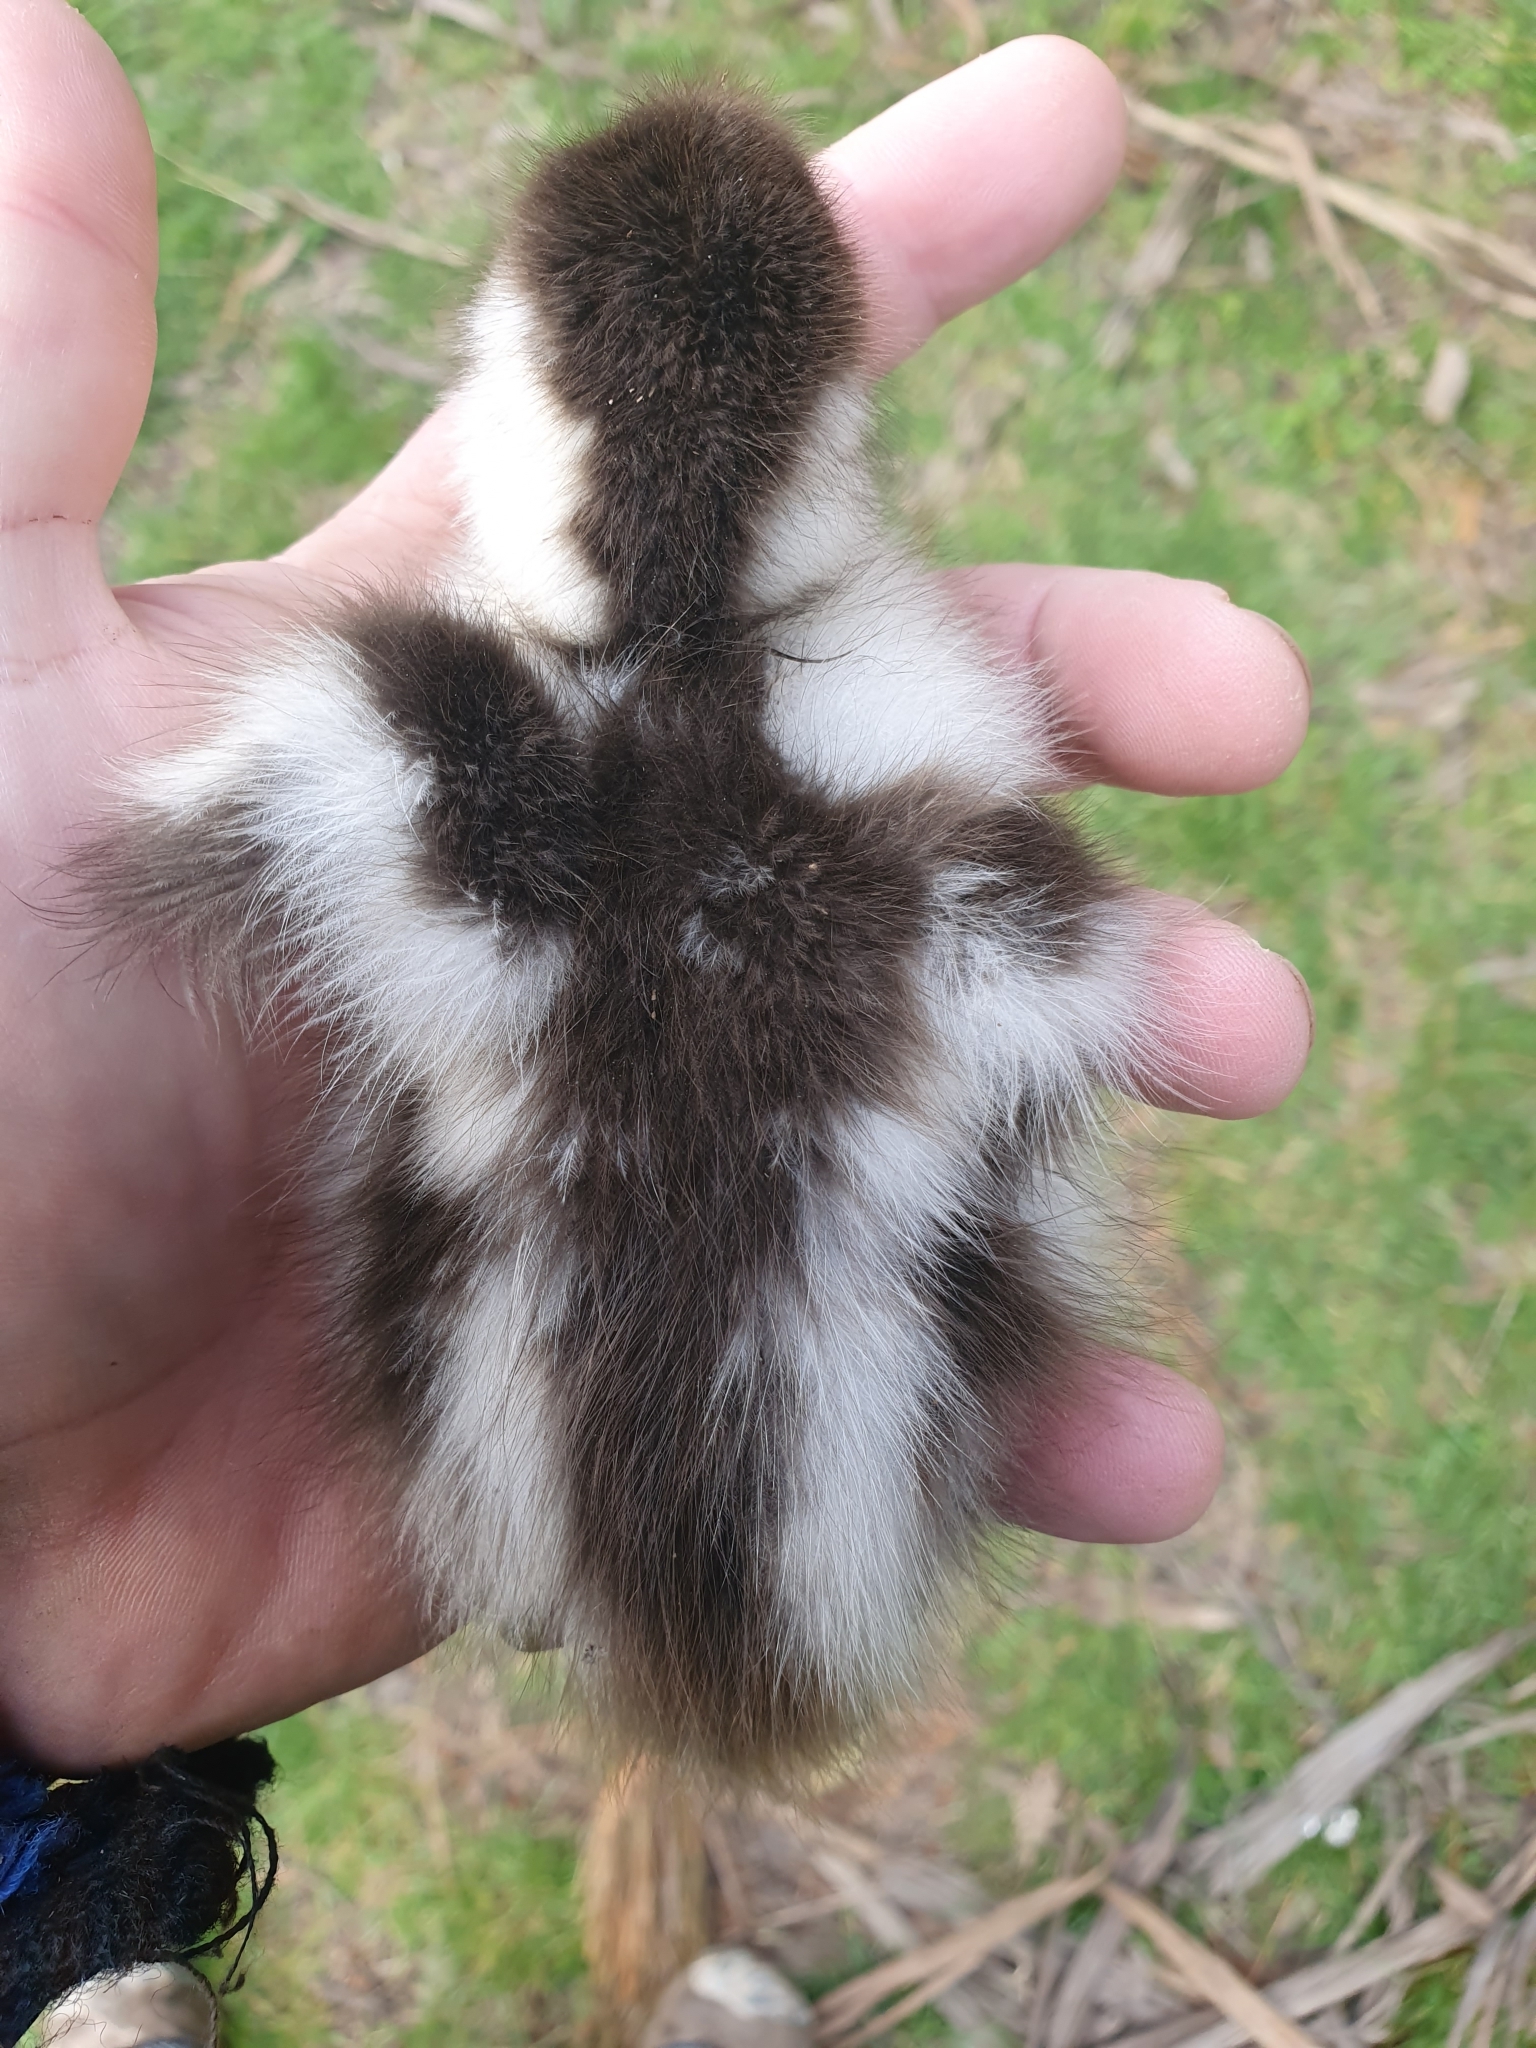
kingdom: Animalia
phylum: Chordata
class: Aves
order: Anseriformes
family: Anatidae
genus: Tadorna
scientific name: Tadorna variegata
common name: Paradise shelduck
